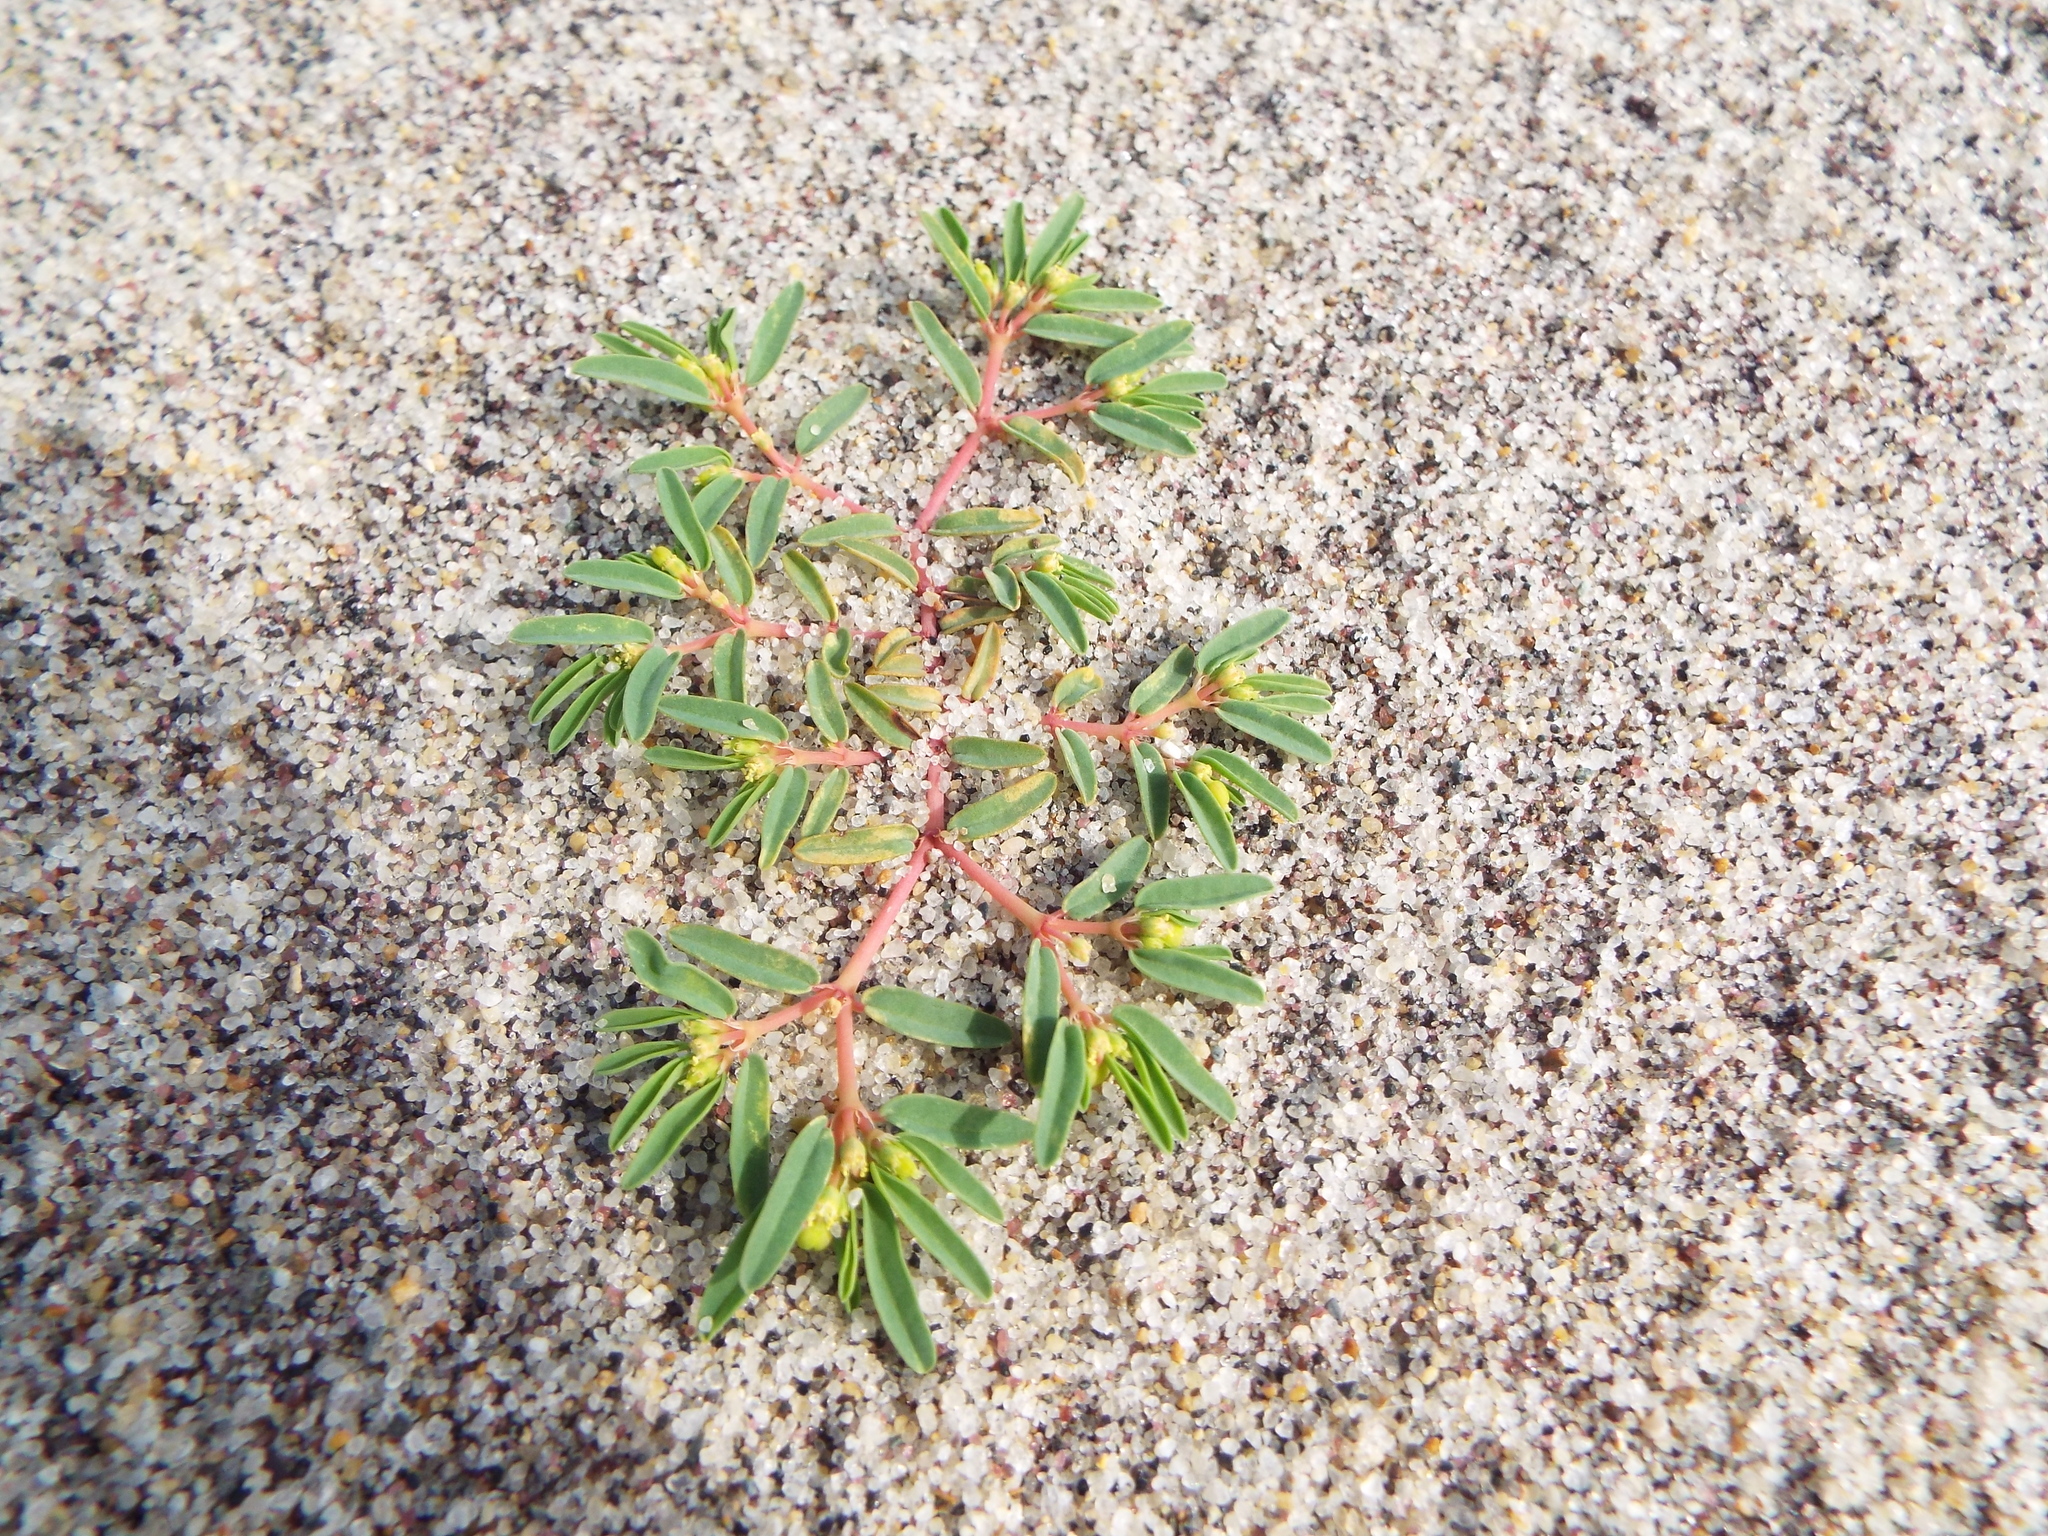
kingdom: Plantae
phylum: Tracheophyta
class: Magnoliopsida
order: Malpighiales
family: Euphorbiaceae
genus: Euphorbia
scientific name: Euphorbia polygonifolia
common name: Knotweed spurge
